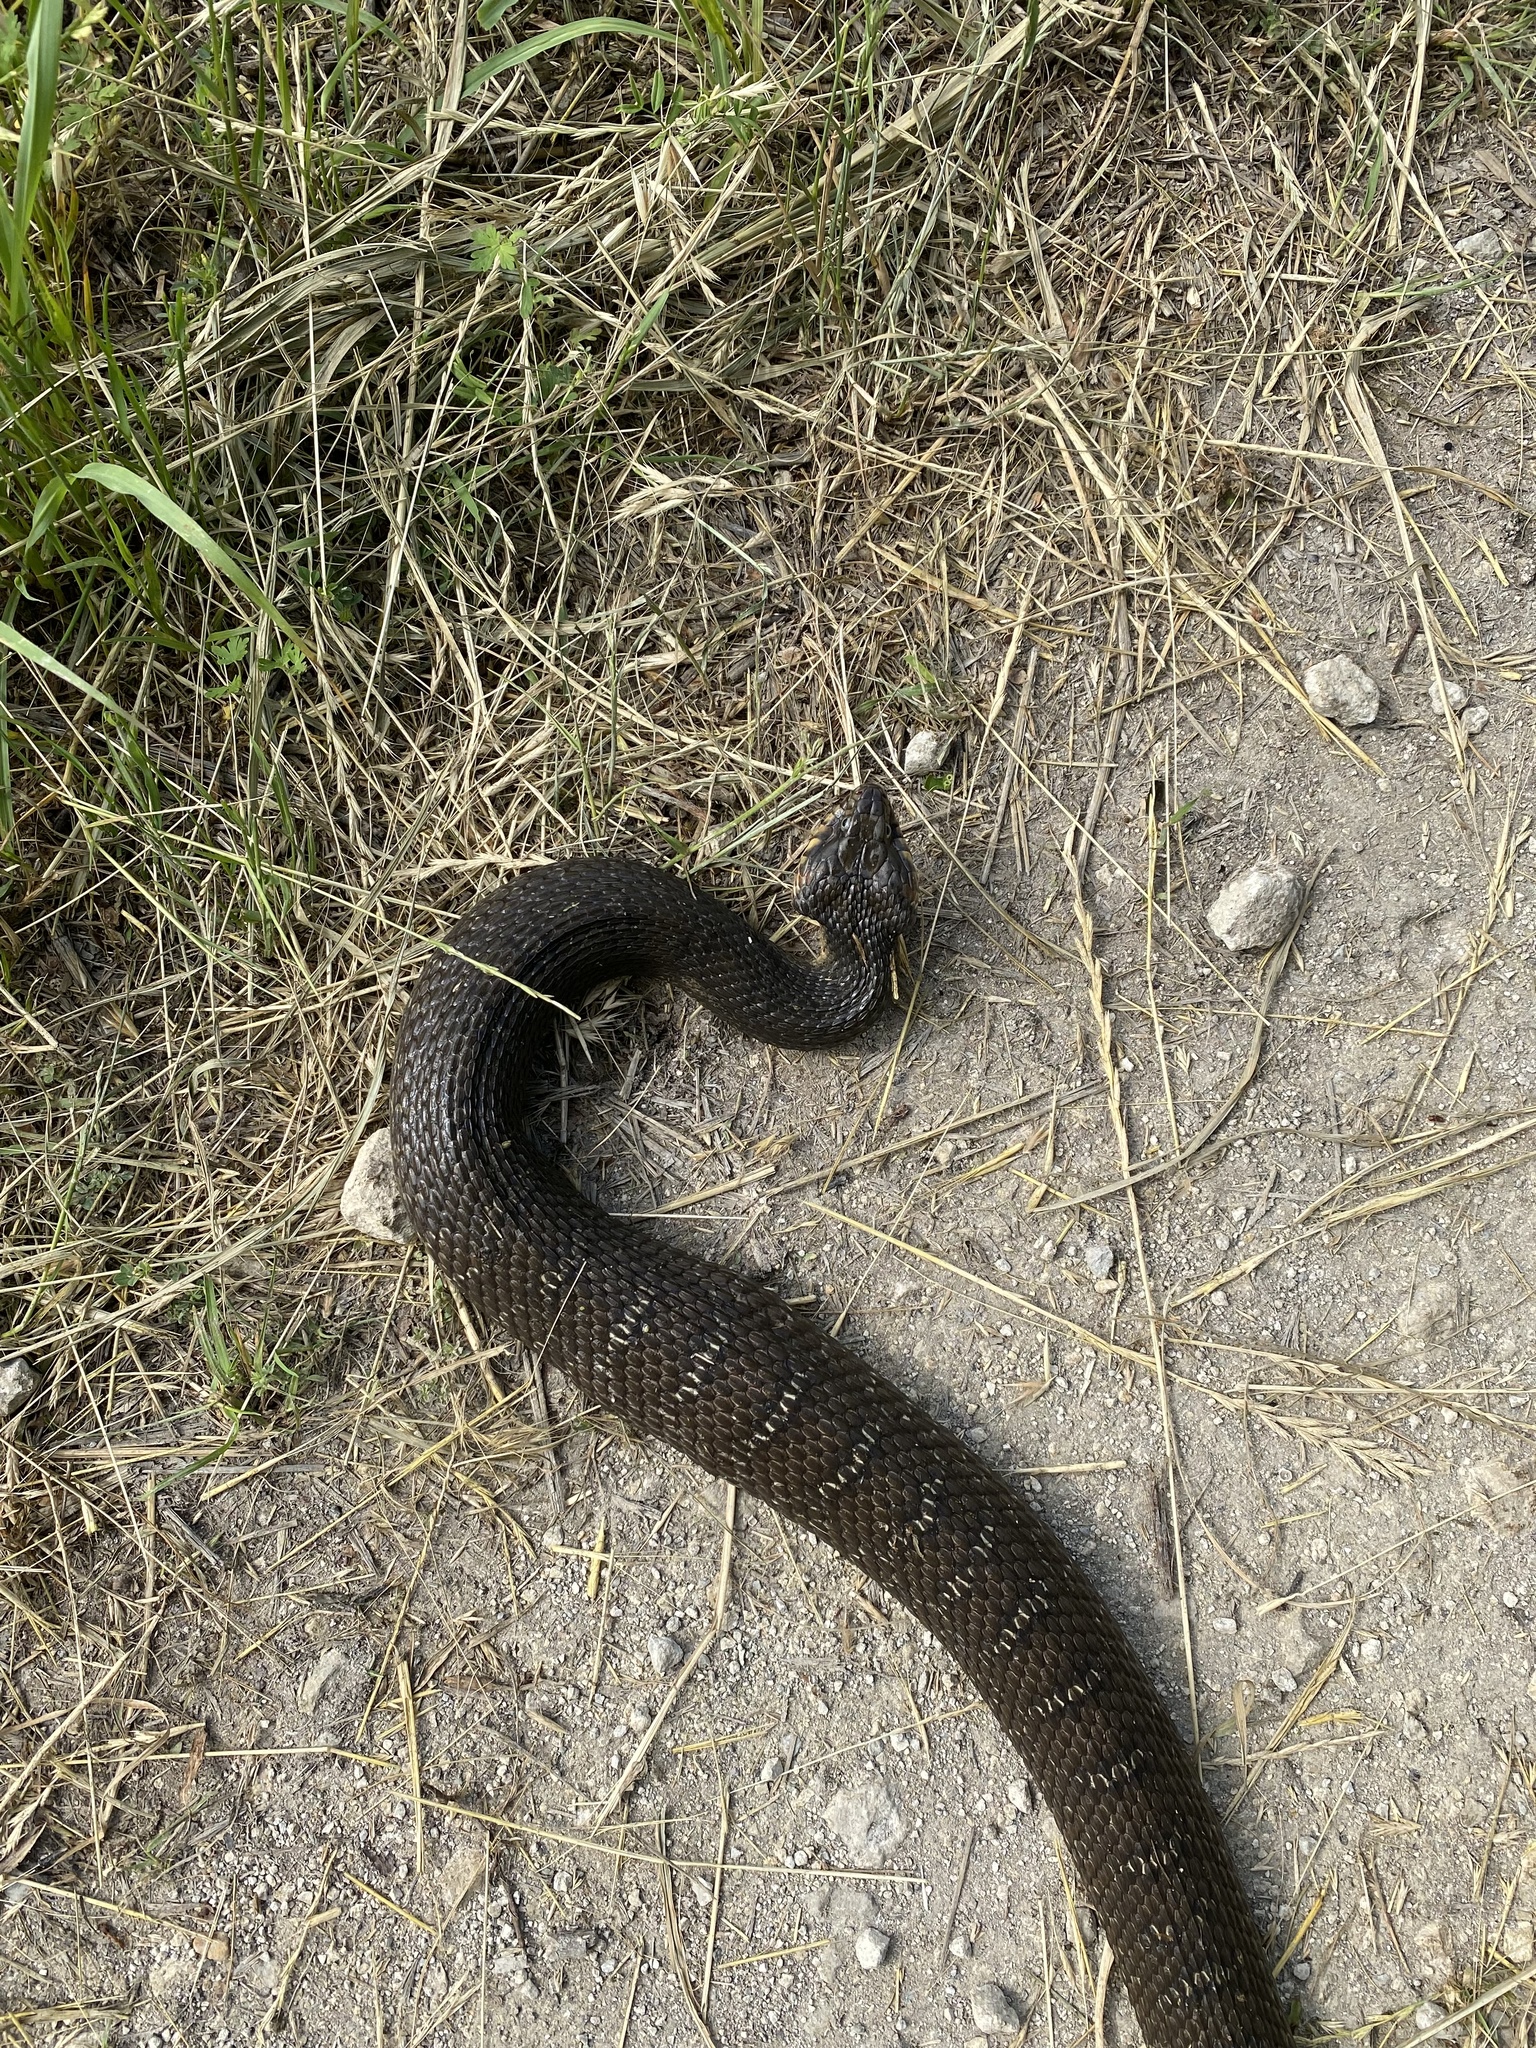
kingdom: Animalia
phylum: Chordata
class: Squamata
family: Colubridae
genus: Nerodia
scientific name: Nerodia erythrogaster
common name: Plainbelly water snake
